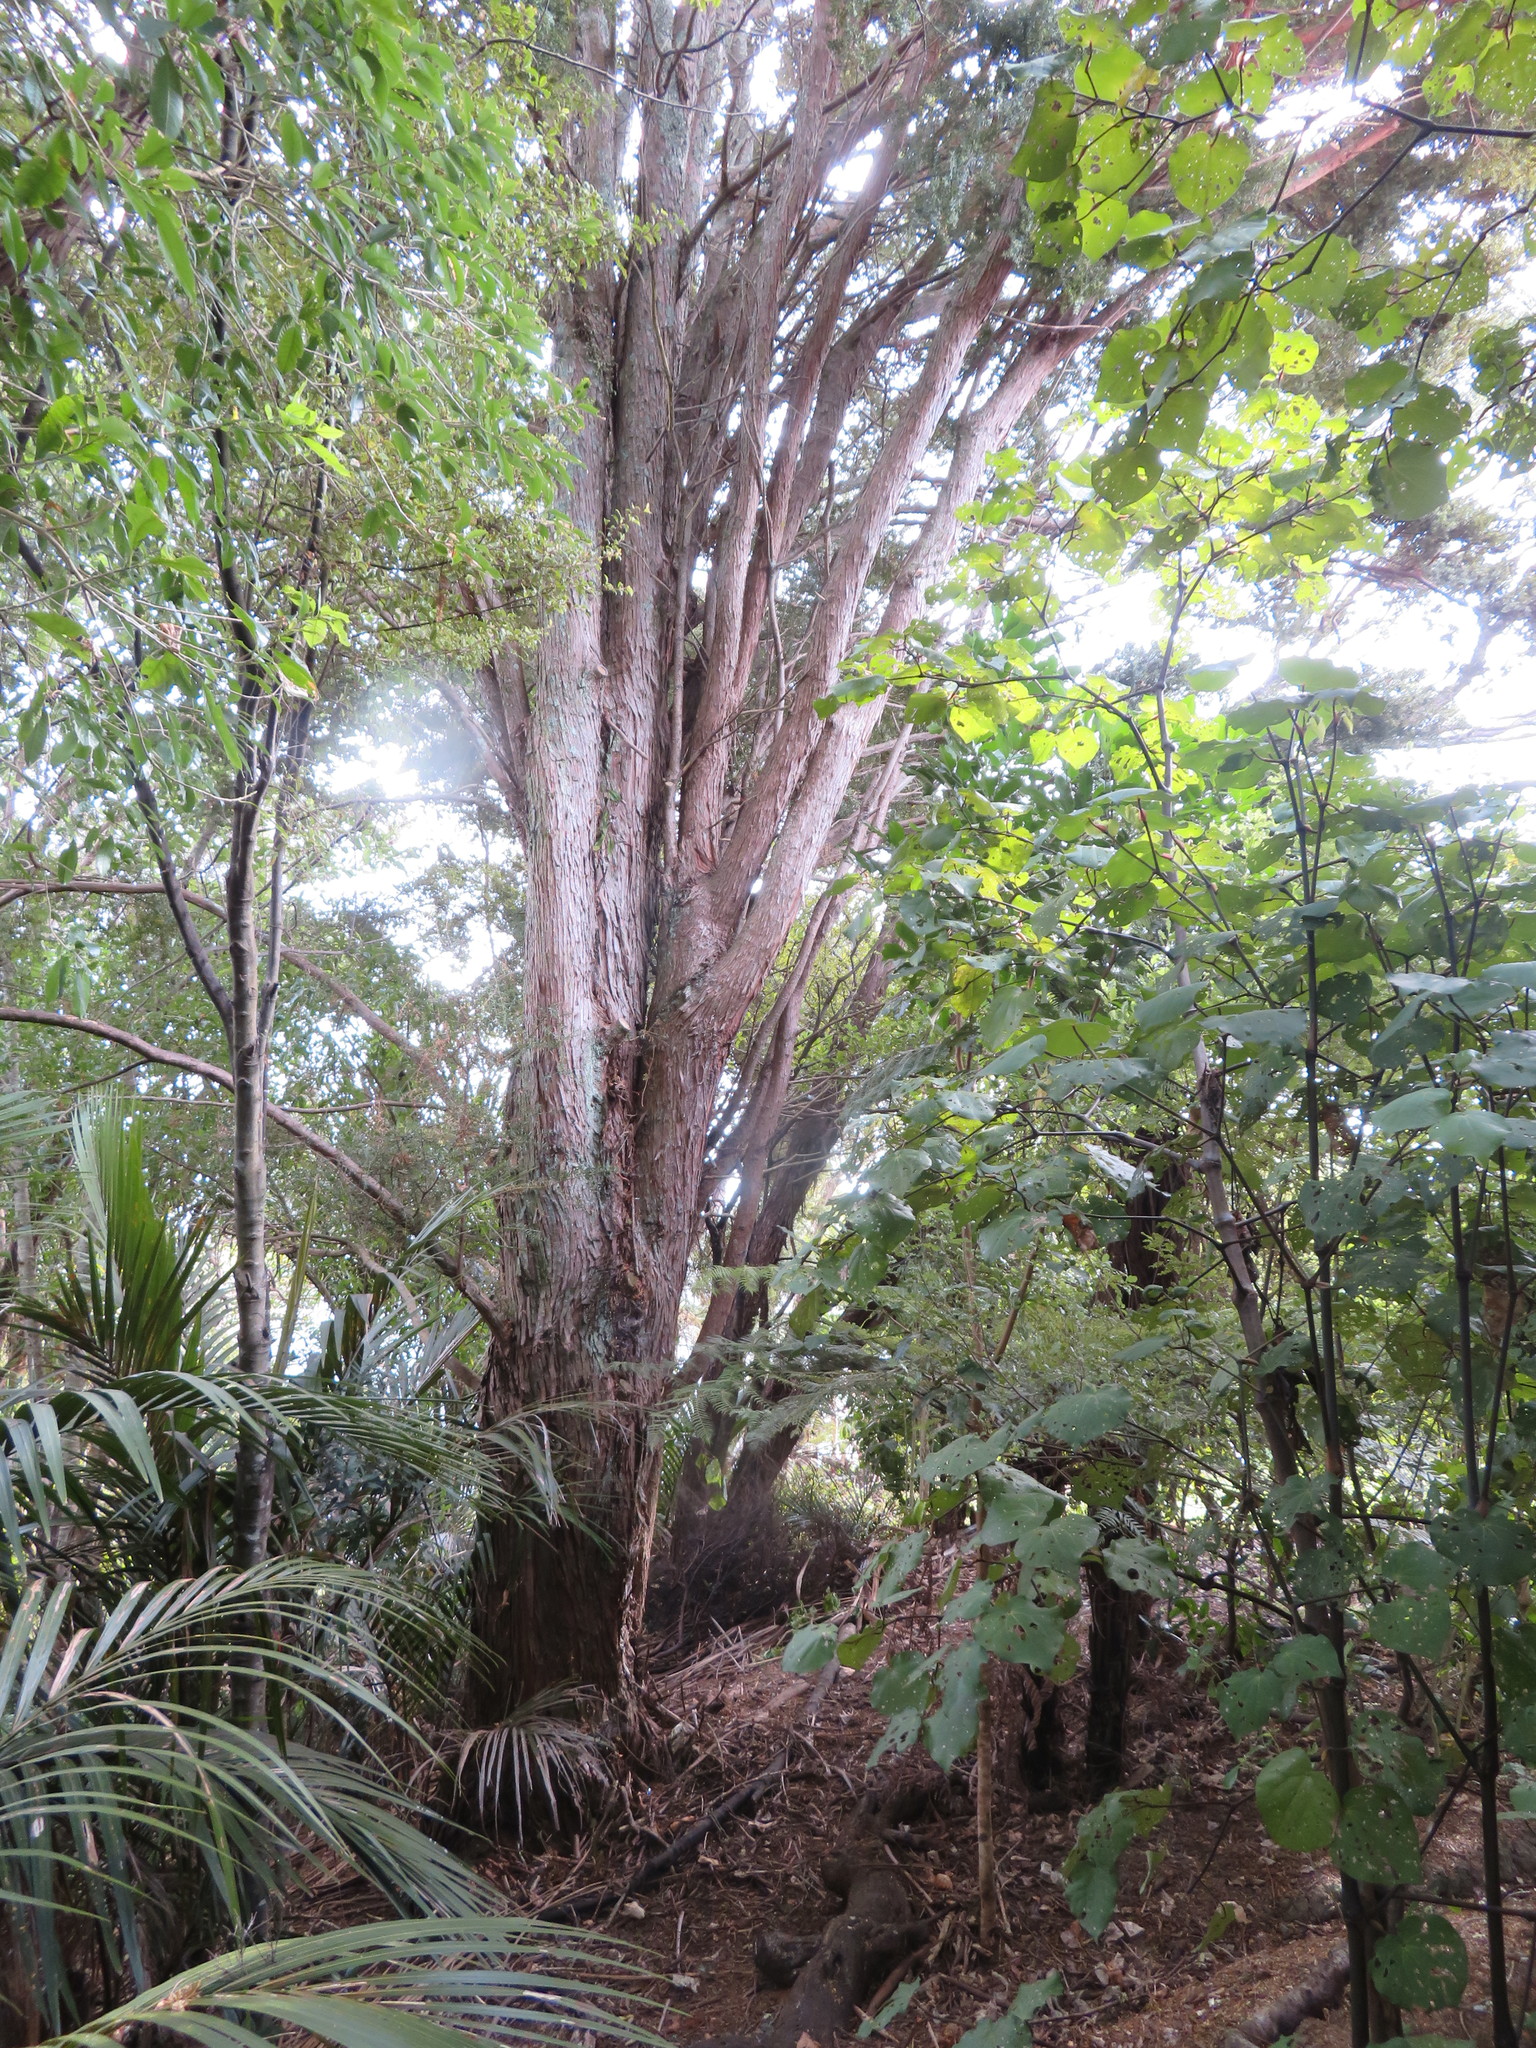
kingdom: Plantae
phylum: Tracheophyta
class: Pinopsida
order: Pinales
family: Podocarpaceae
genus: Podocarpus
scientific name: Podocarpus totara
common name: Totara
